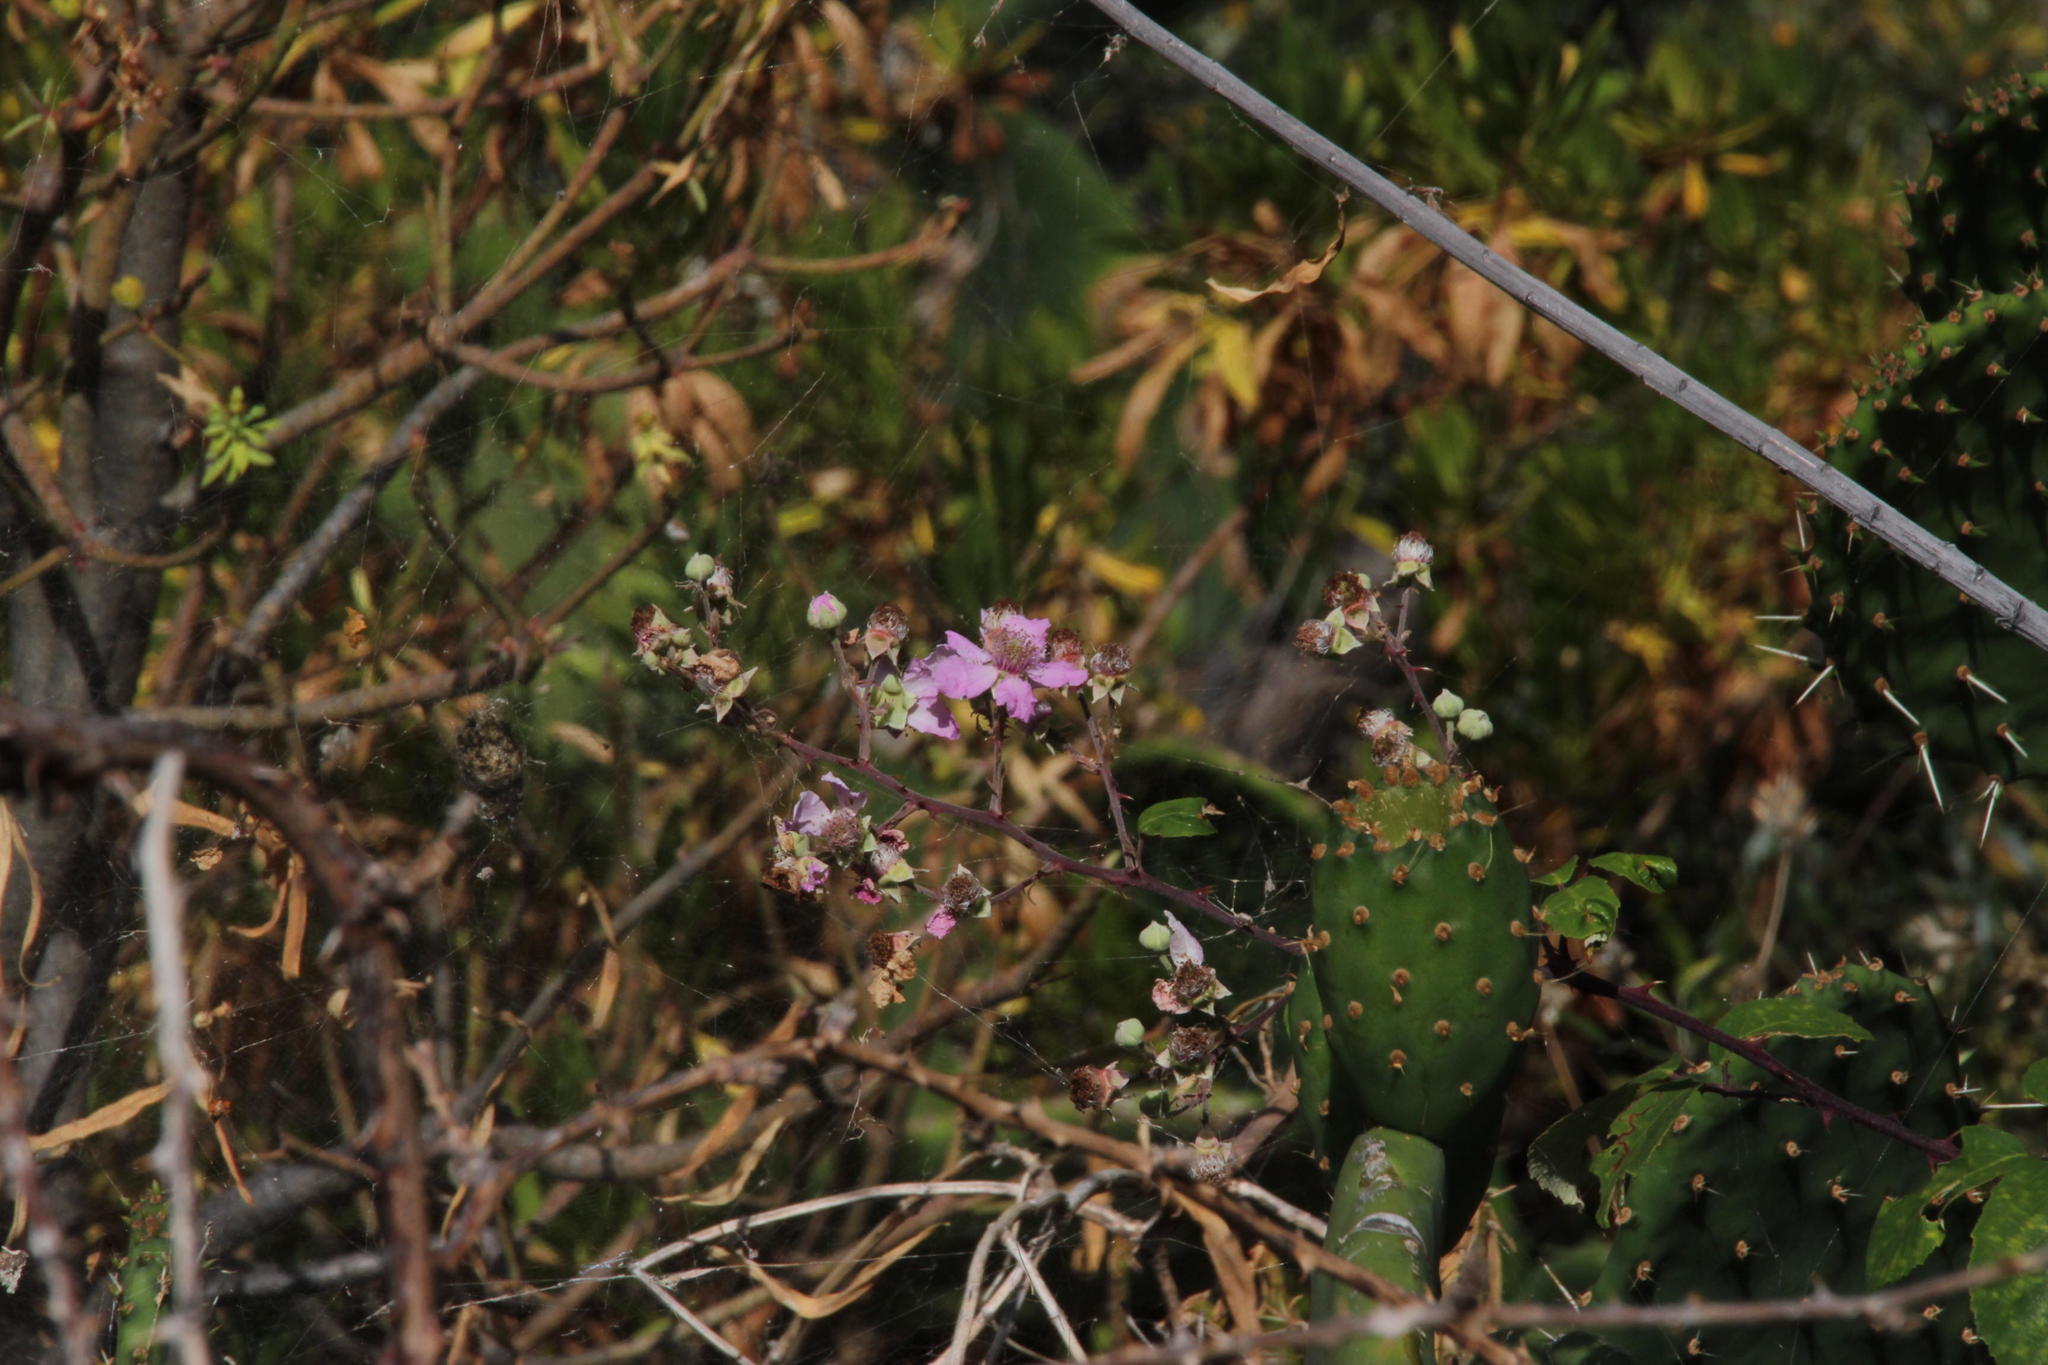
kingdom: Plantae
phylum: Tracheophyta
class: Magnoliopsida
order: Caryophyllales
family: Cactaceae
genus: Opuntia
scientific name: Opuntia ficus-indica
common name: Barbary fig
